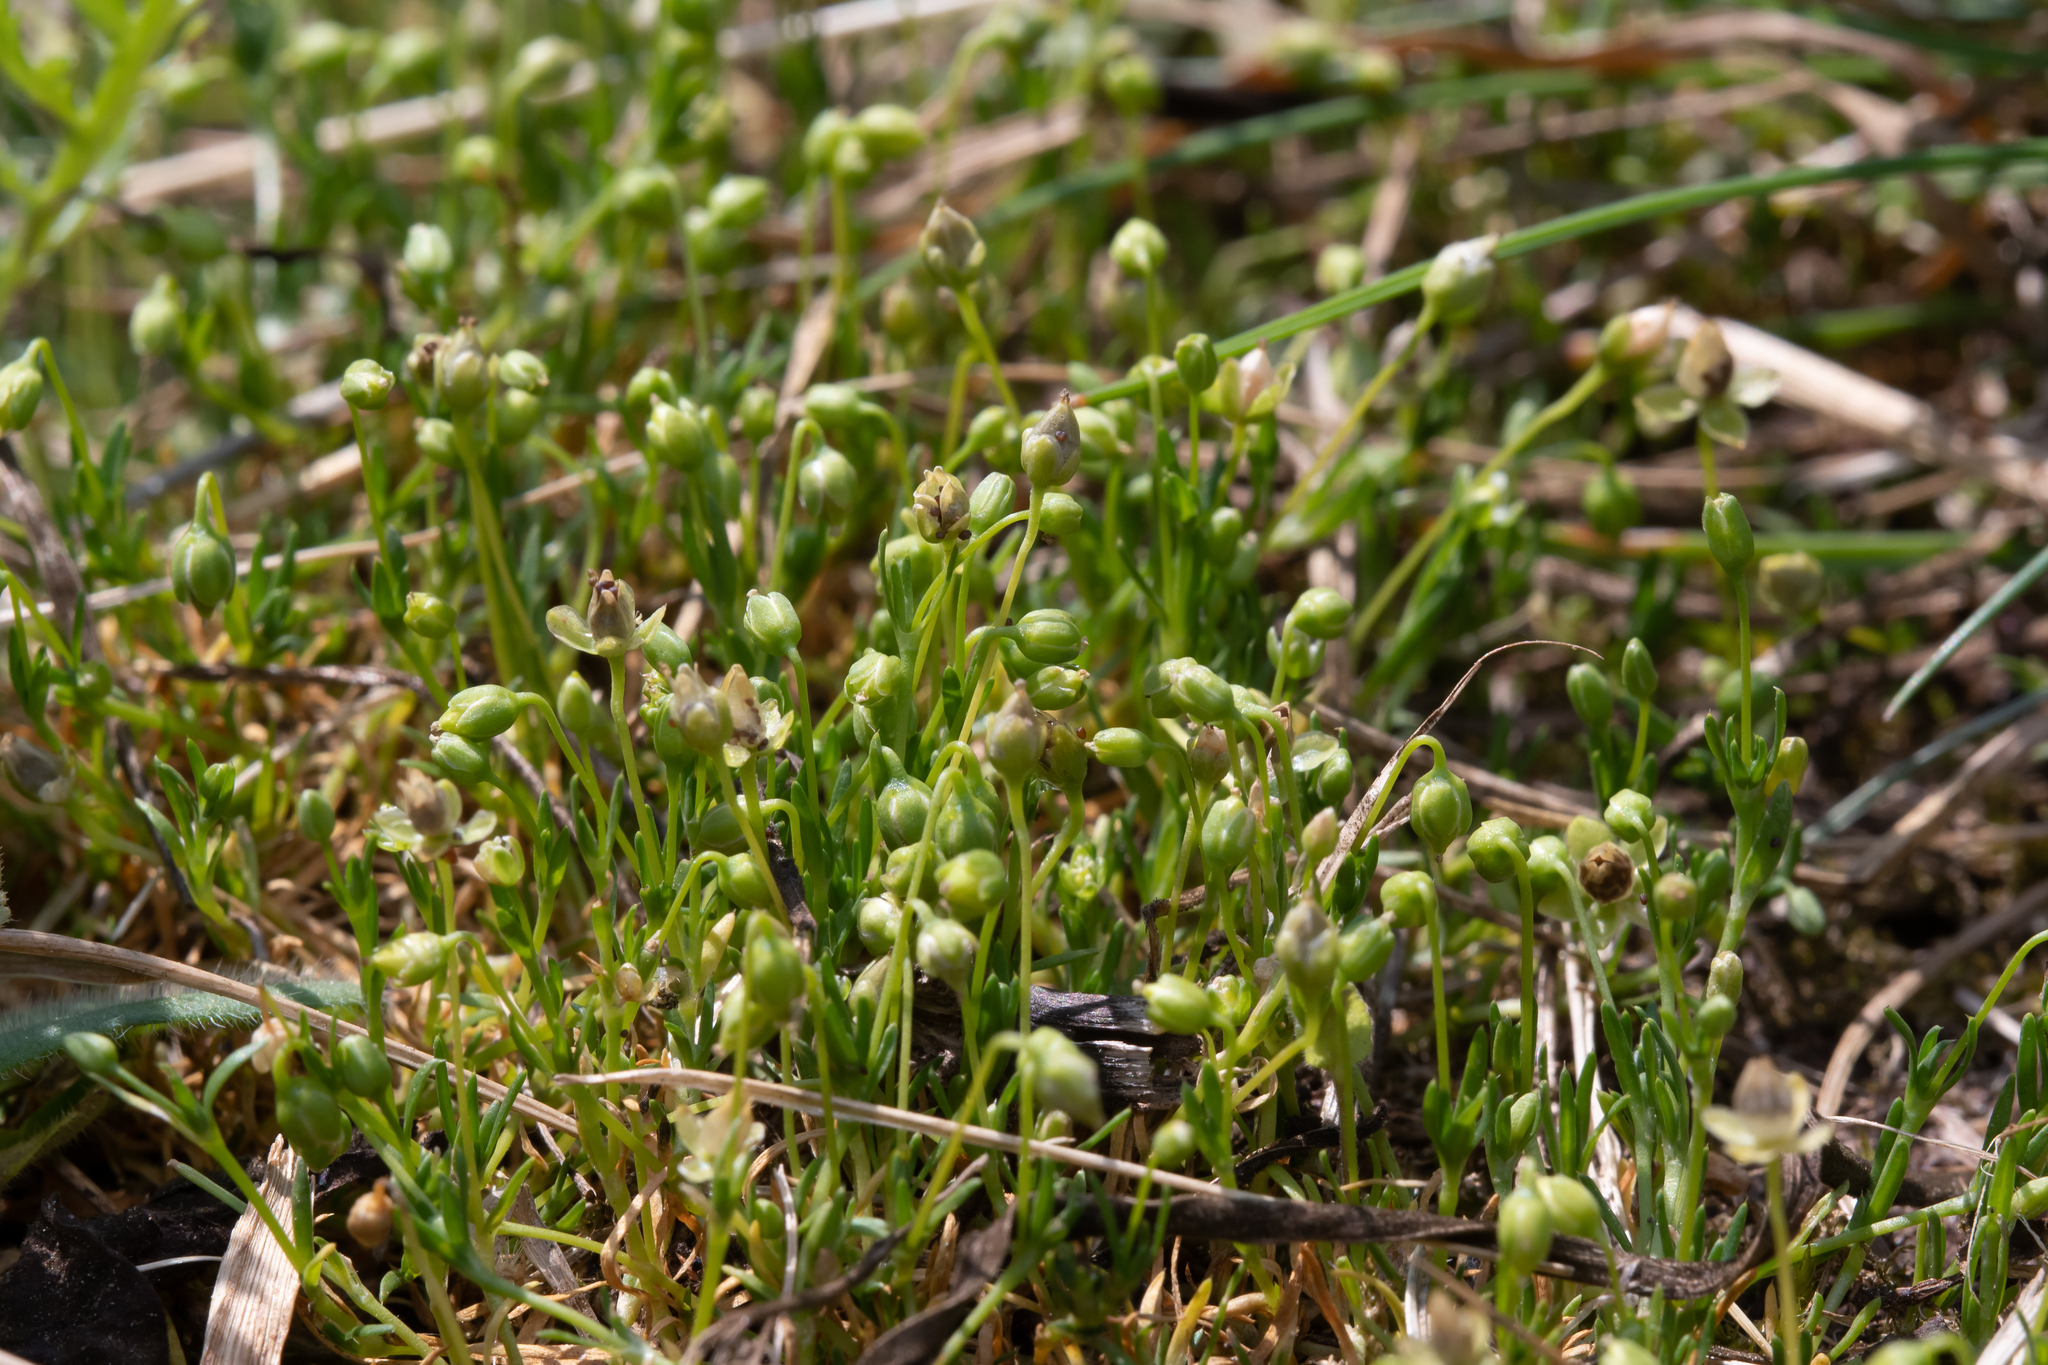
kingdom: Plantae
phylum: Tracheophyta
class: Magnoliopsida
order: Caryophyllales
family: Caryophyllaceae
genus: Sagina
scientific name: Sagina procumbens
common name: Procumbent pearlwort
